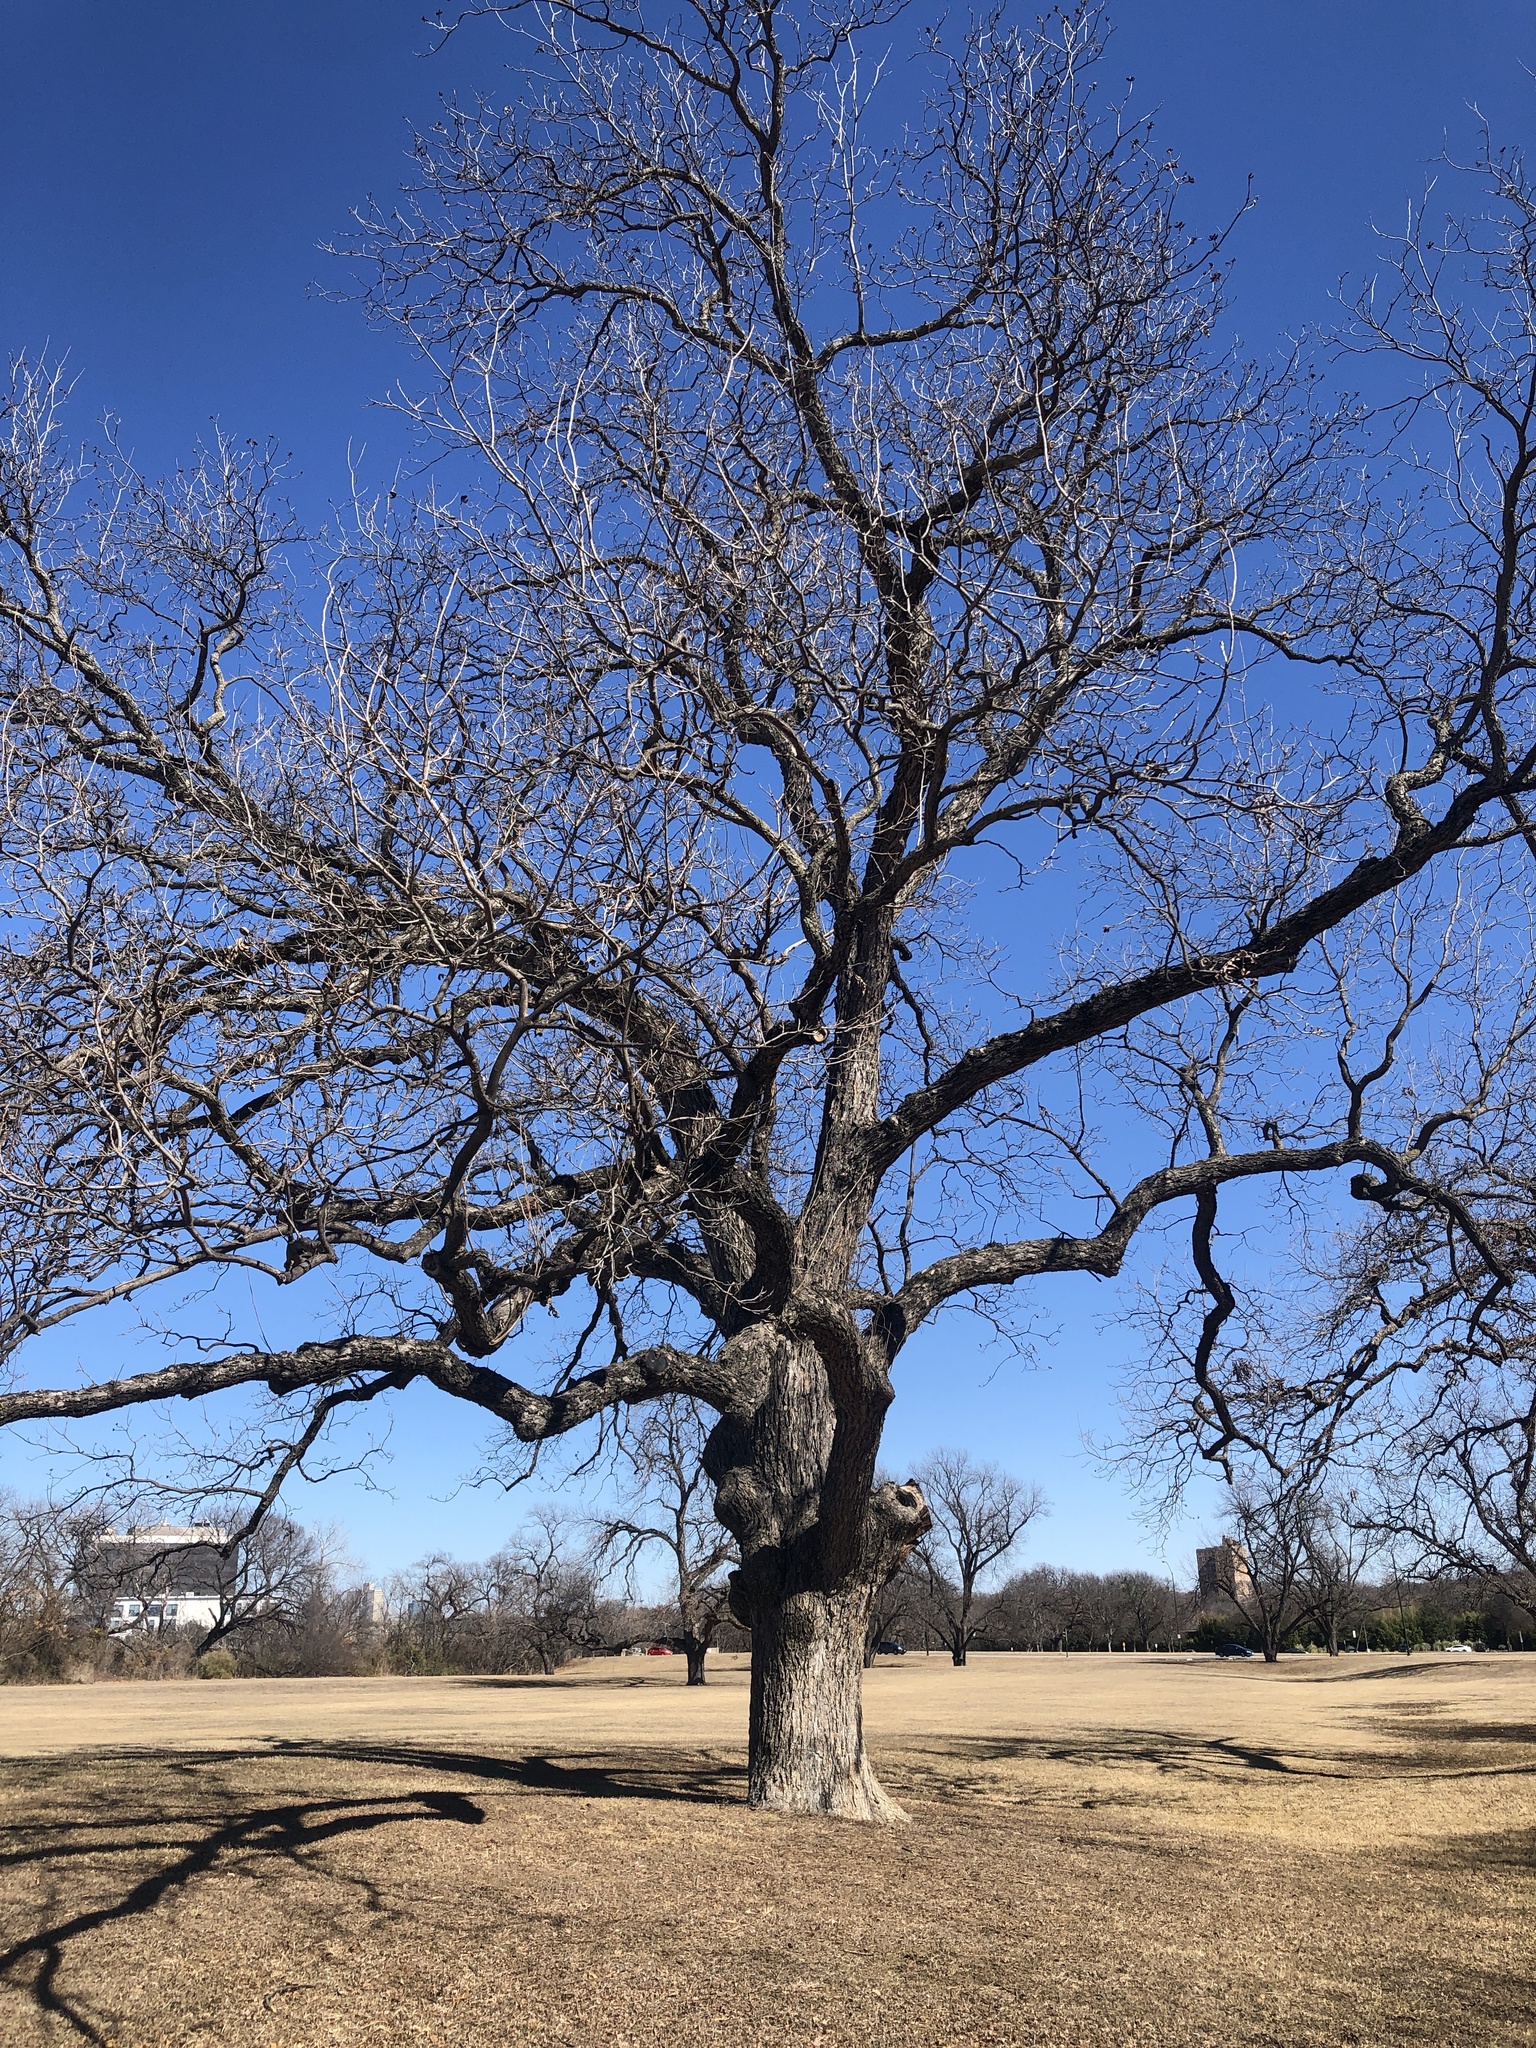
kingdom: Plantae
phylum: Tracheophyta
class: Magnoliopsida
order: Fagales
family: Juglandaceae
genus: Carya
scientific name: Carya illinoinensis
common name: Pecan
